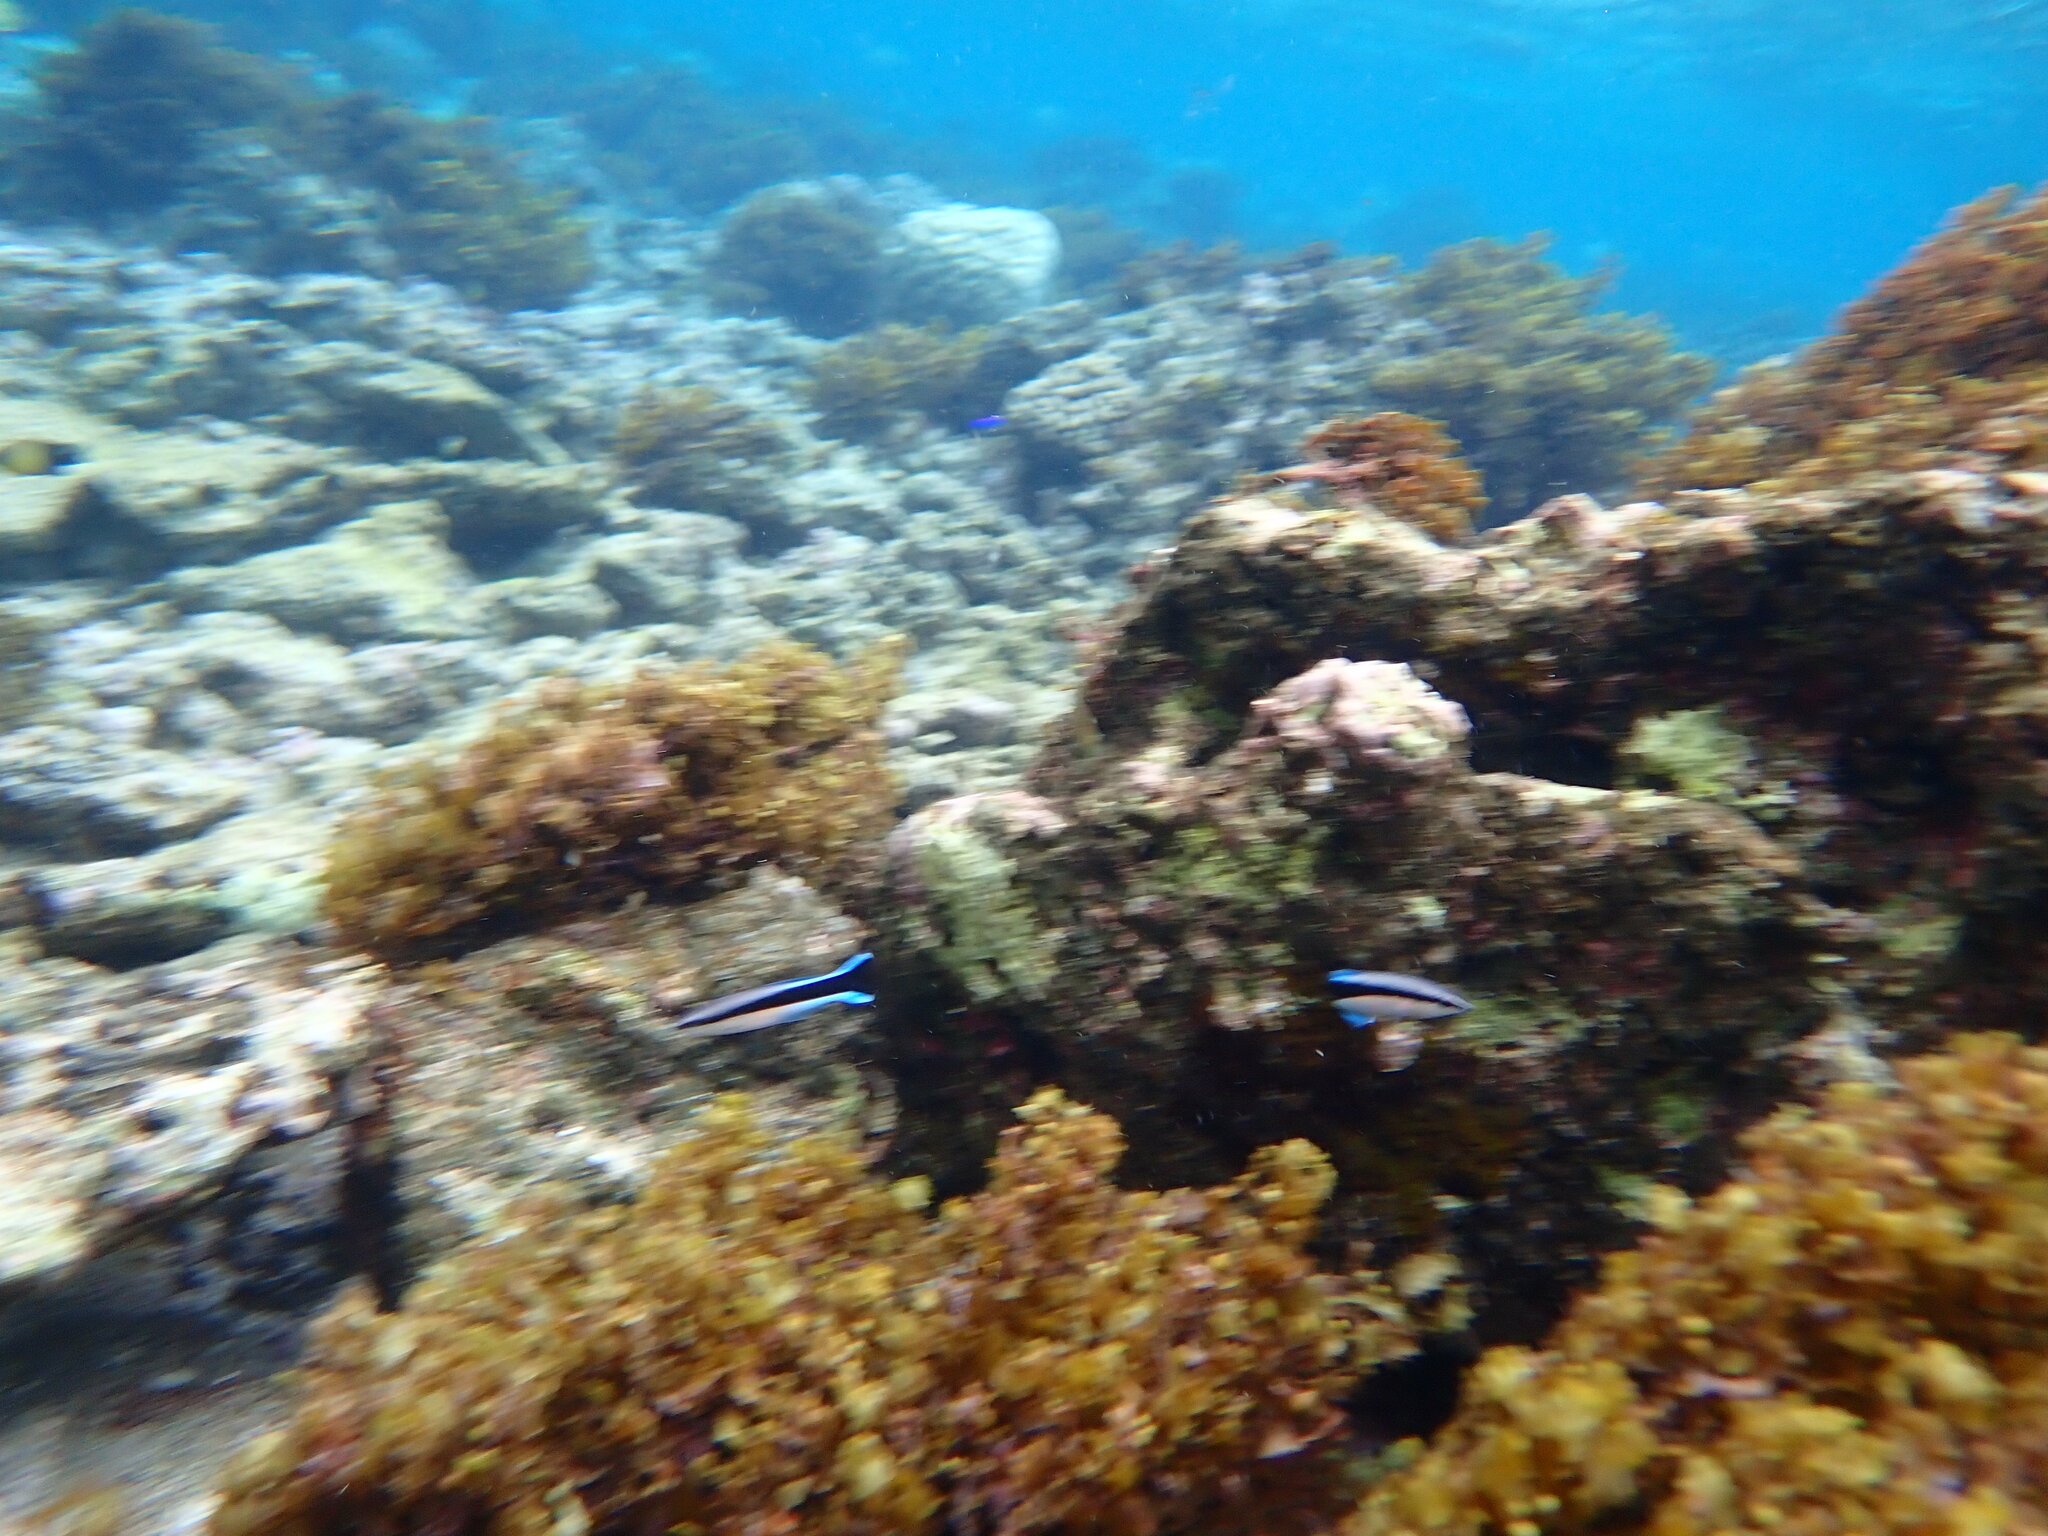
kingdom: Animalia
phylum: Chordata
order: Perciformes
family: Labridae
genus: Labroides
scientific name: Labroides dimidiatus
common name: Blue diesel wrasse
